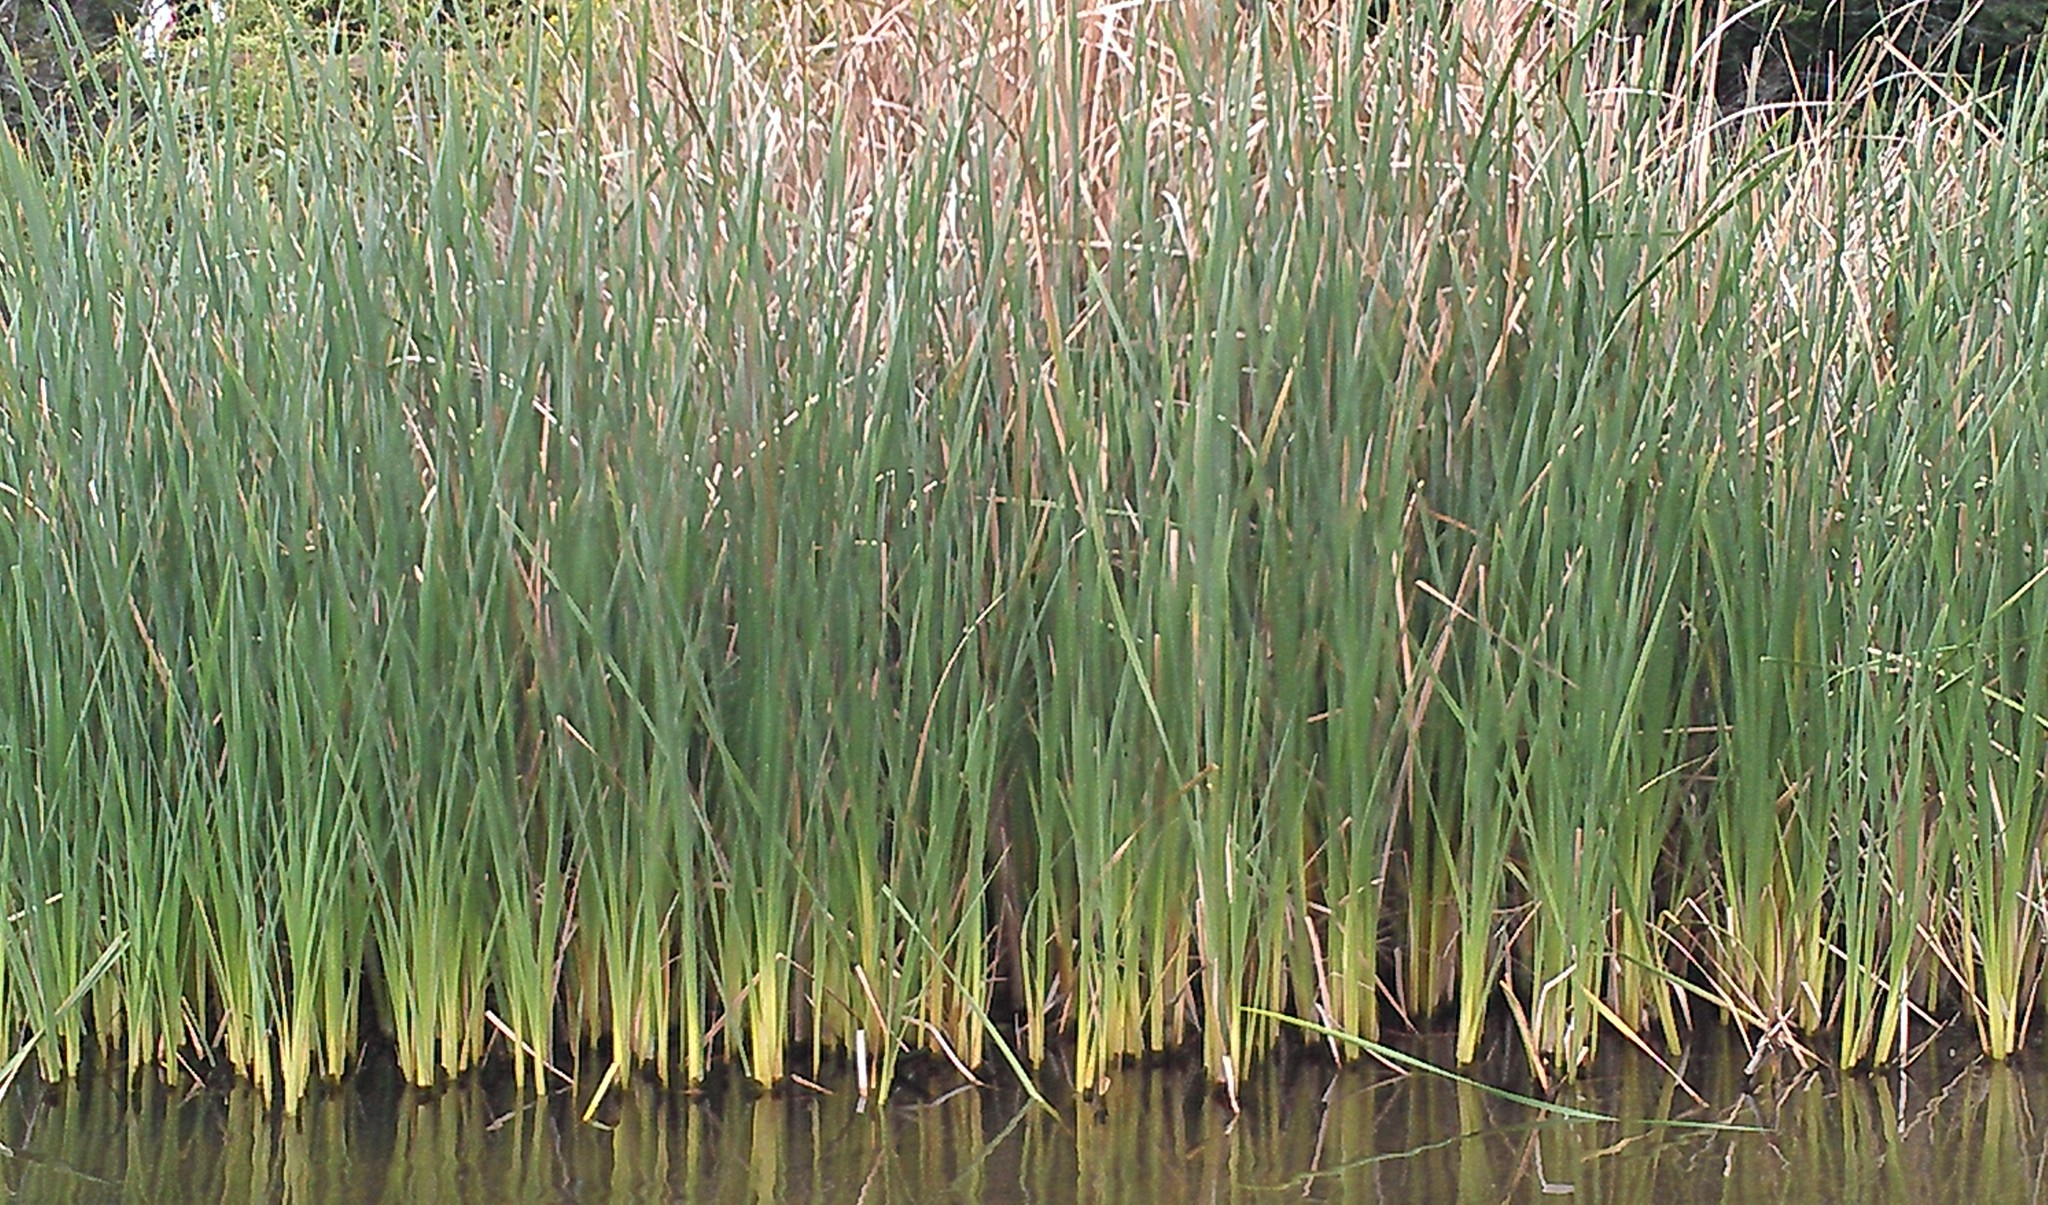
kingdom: Plantae
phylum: Tracheophyta
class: Liliopsida
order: Poales
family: Typhaceae
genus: Typha
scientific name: Typha
